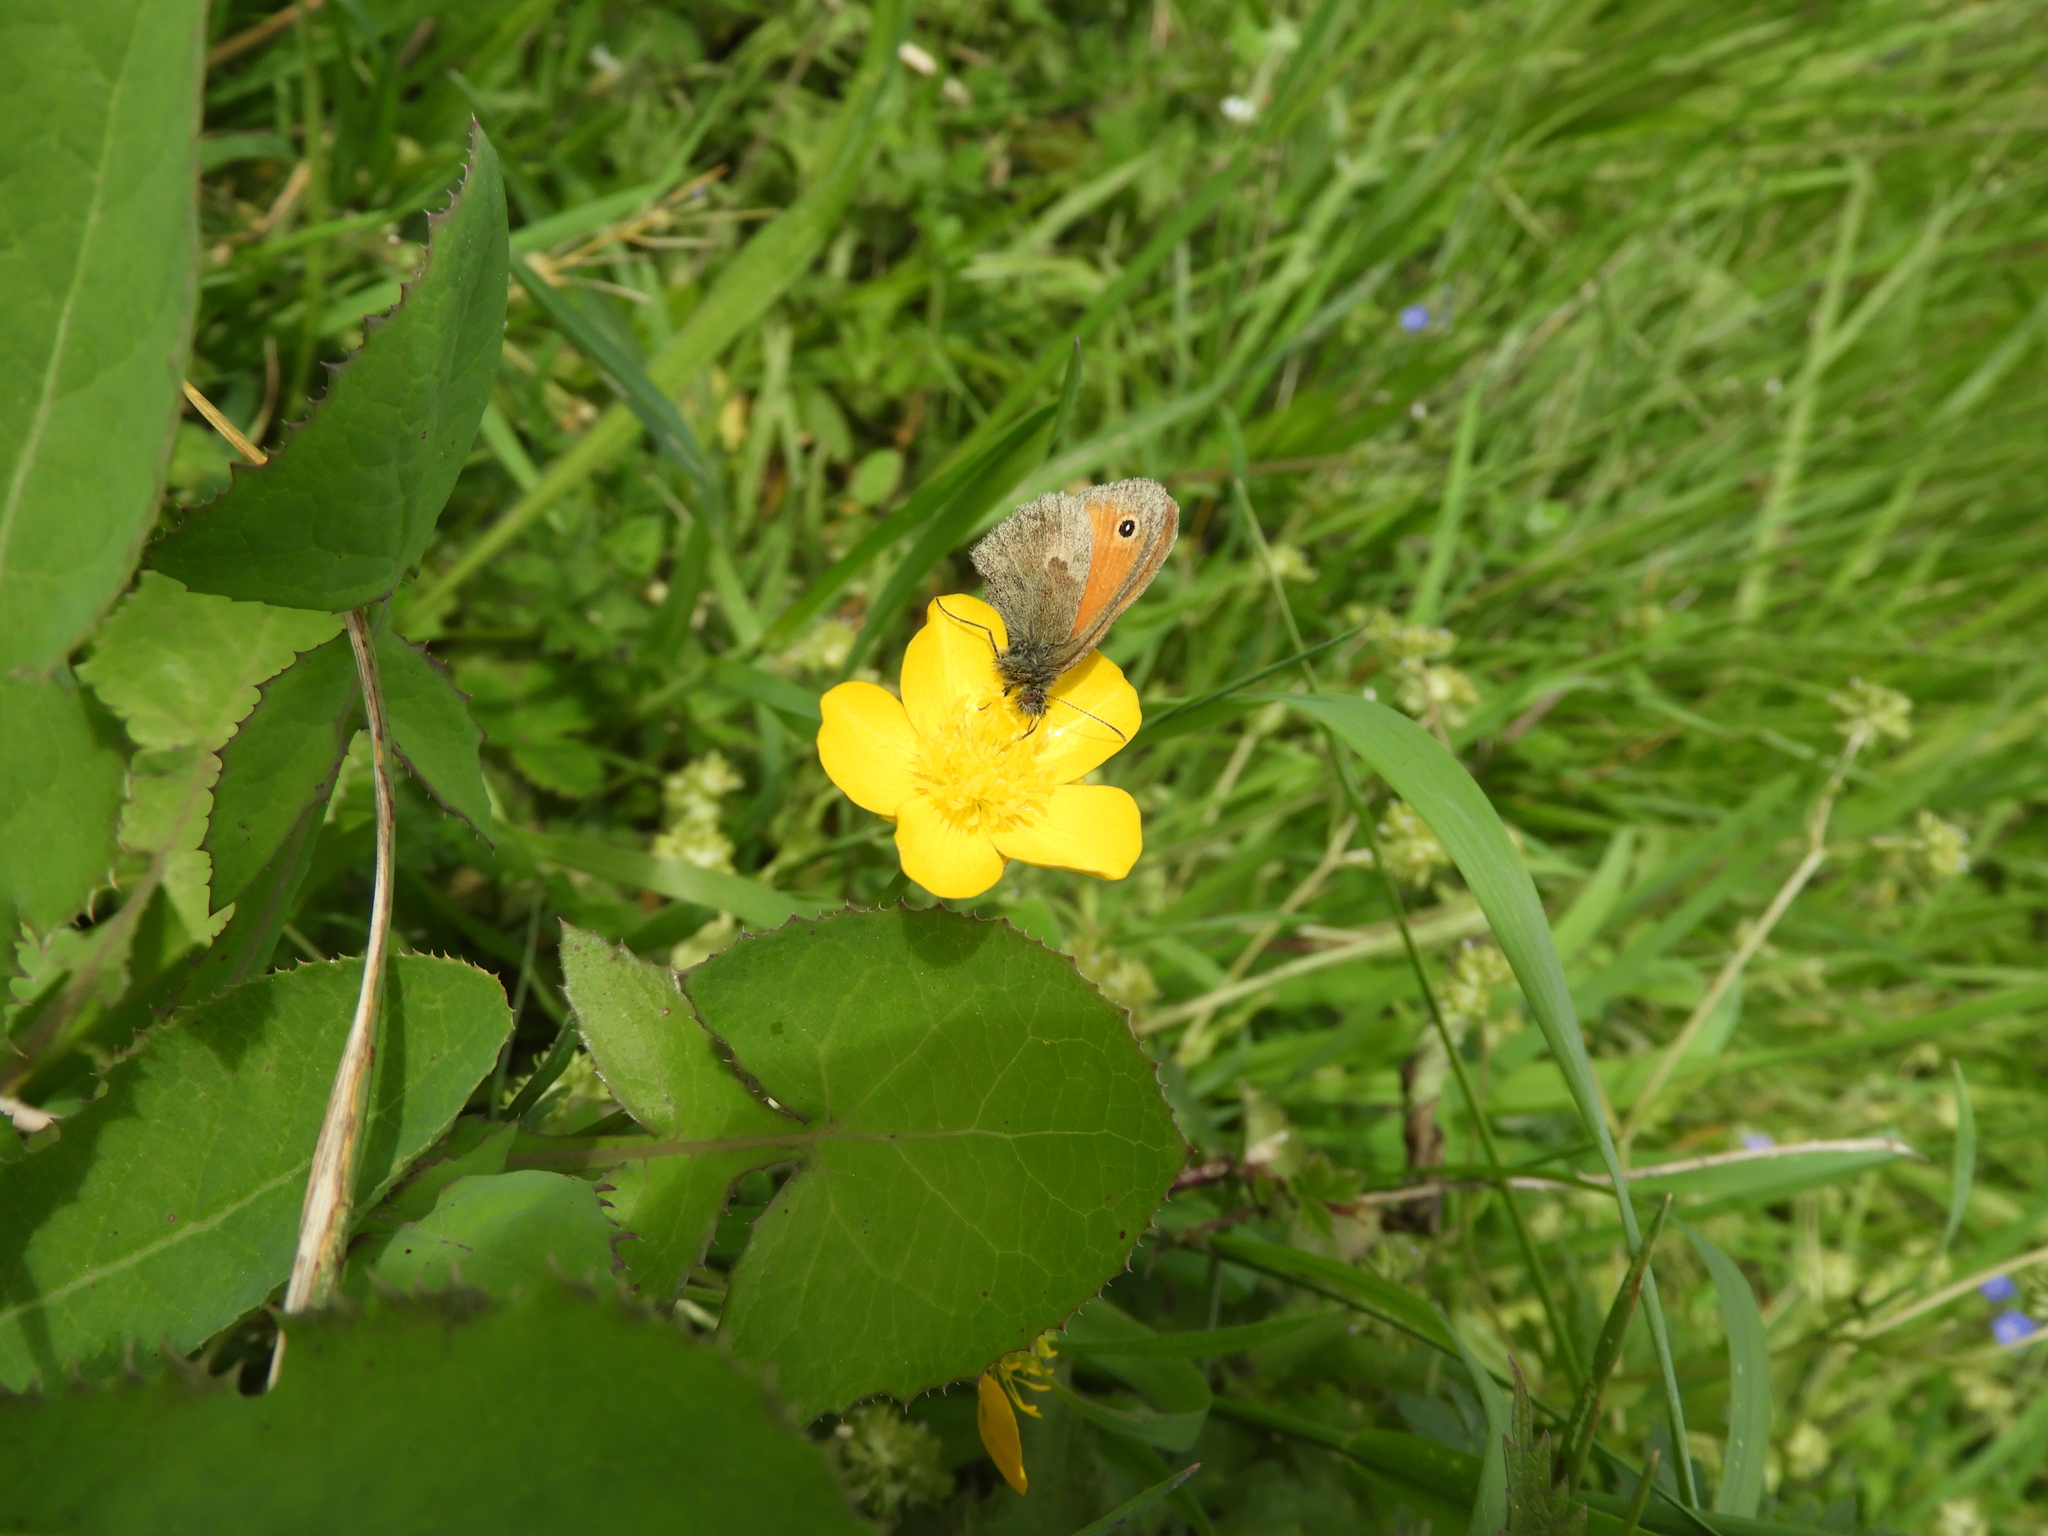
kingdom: Animalia
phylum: Arthropoda
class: Insecta
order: Lepidoptera
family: Nymphalidae
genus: Coenonympha
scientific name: Coenonympha pamphilus
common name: Small heath
